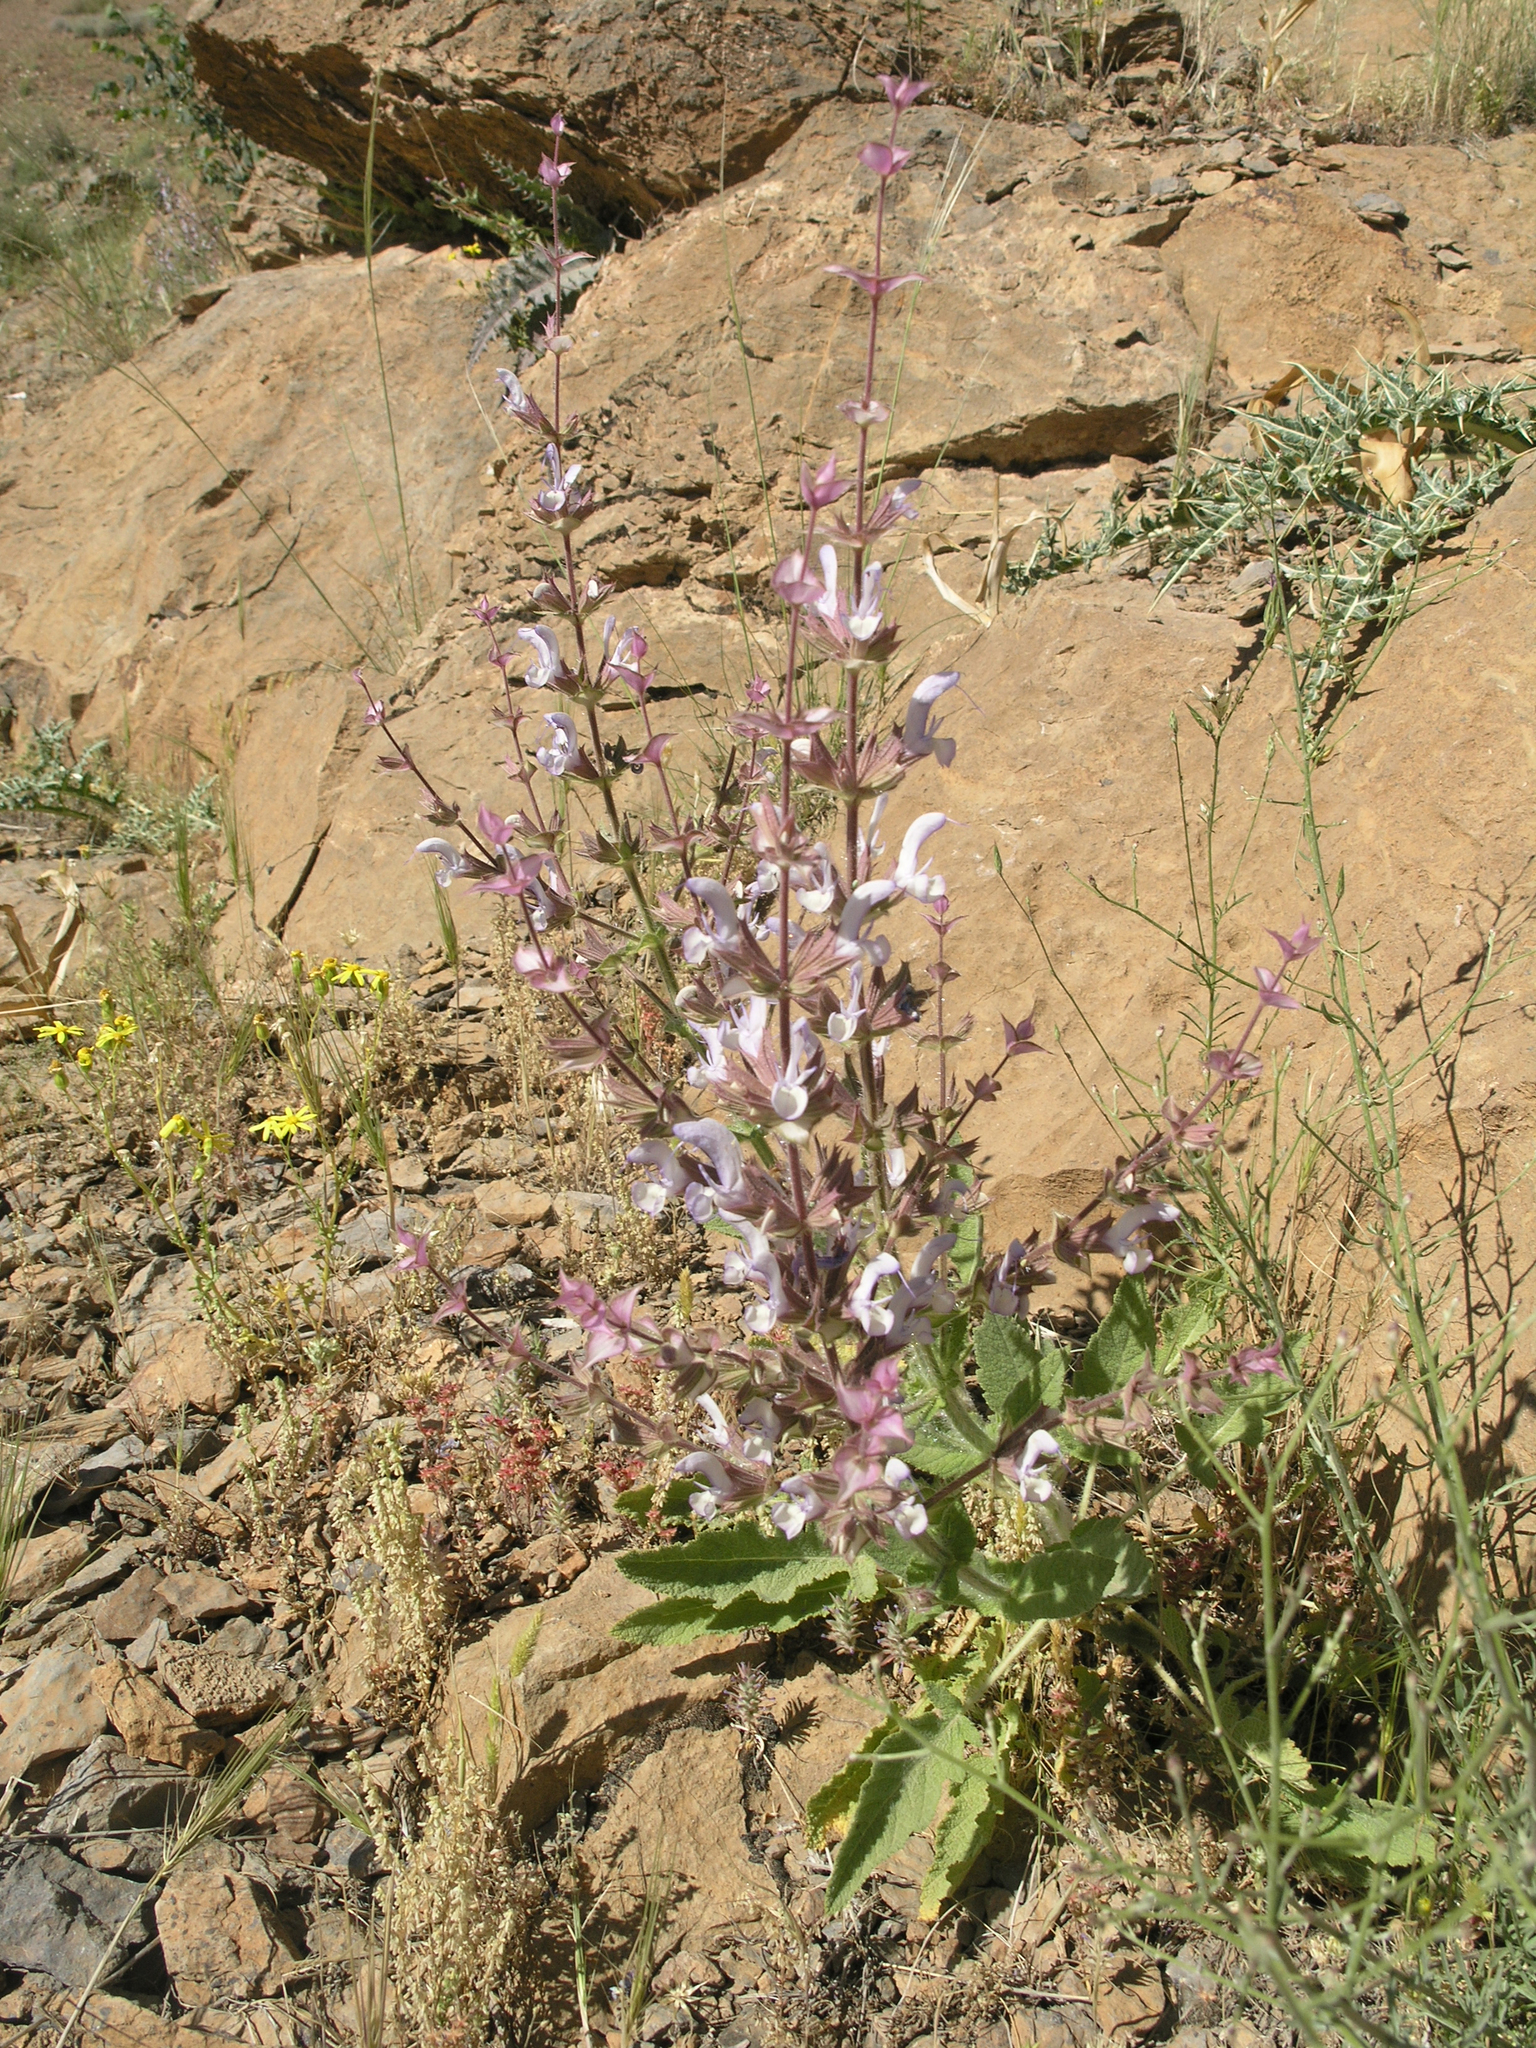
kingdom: Plantae
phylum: Tracheophyta
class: Magnoliopsida
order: Lamiales
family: Lamiaceae
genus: Salvia
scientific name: Salvia sclarea
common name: Clary
